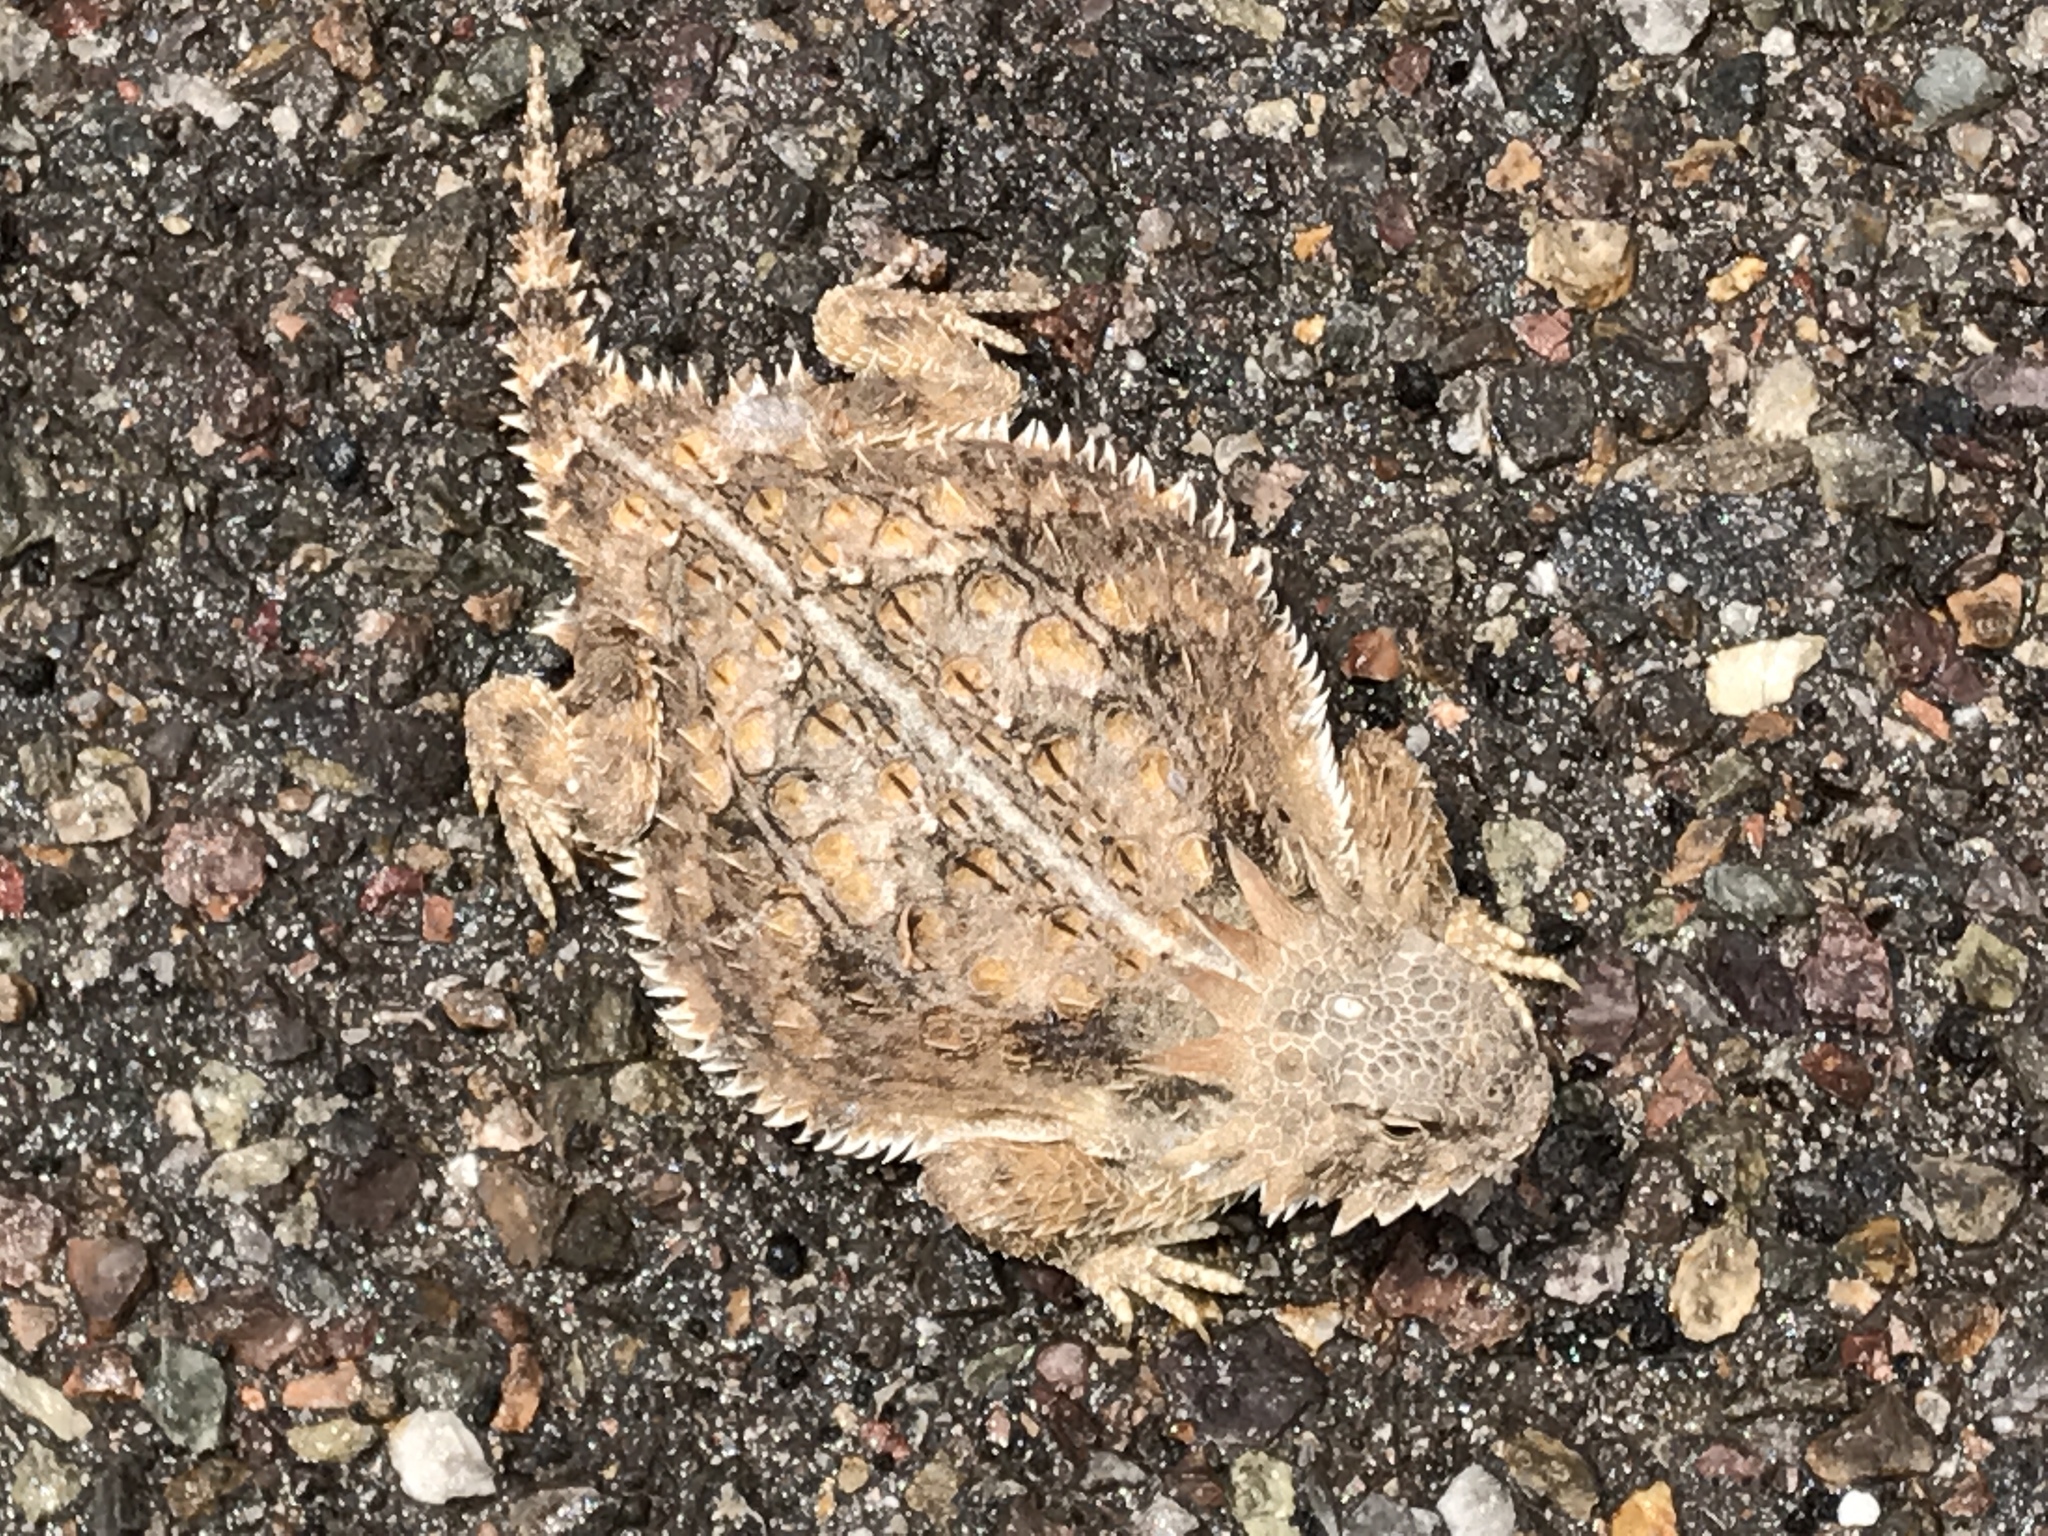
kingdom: Animalia
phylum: Chordata
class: Squamata
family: Phrynosomatidae
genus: Phrynosoma
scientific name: Phrynosoma solare
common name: Regal horned lizard
